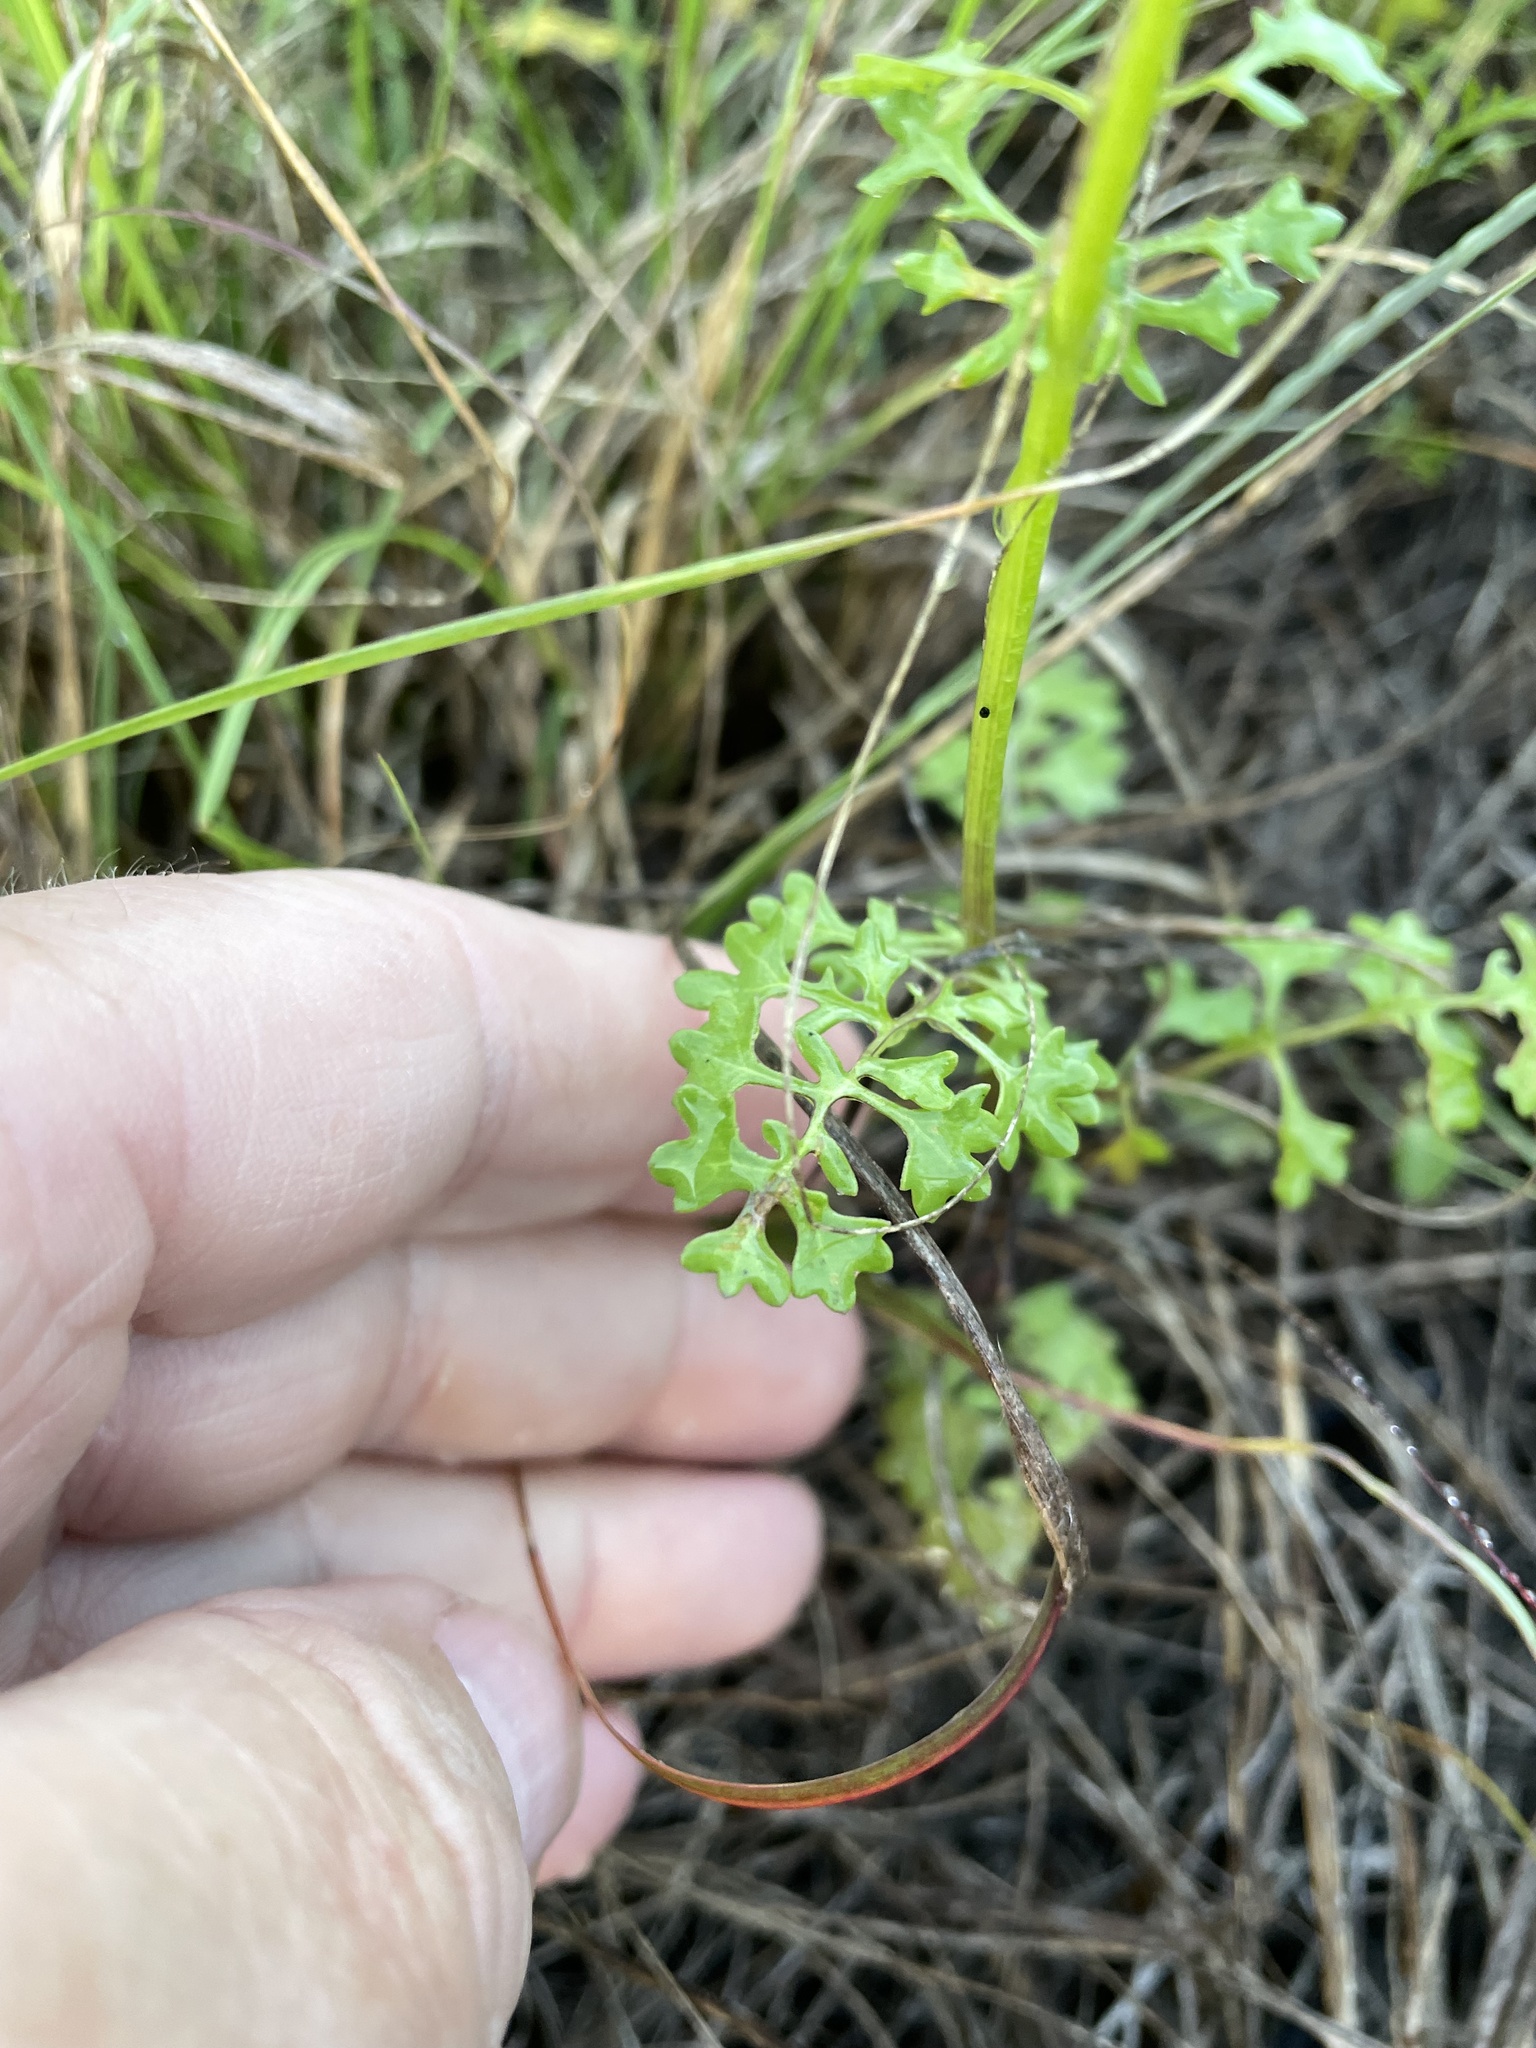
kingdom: Plantae
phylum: Tracheophyta
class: Magnoliopsida
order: Asterales
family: Asteraceae
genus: Packera
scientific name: Packera tampicana
